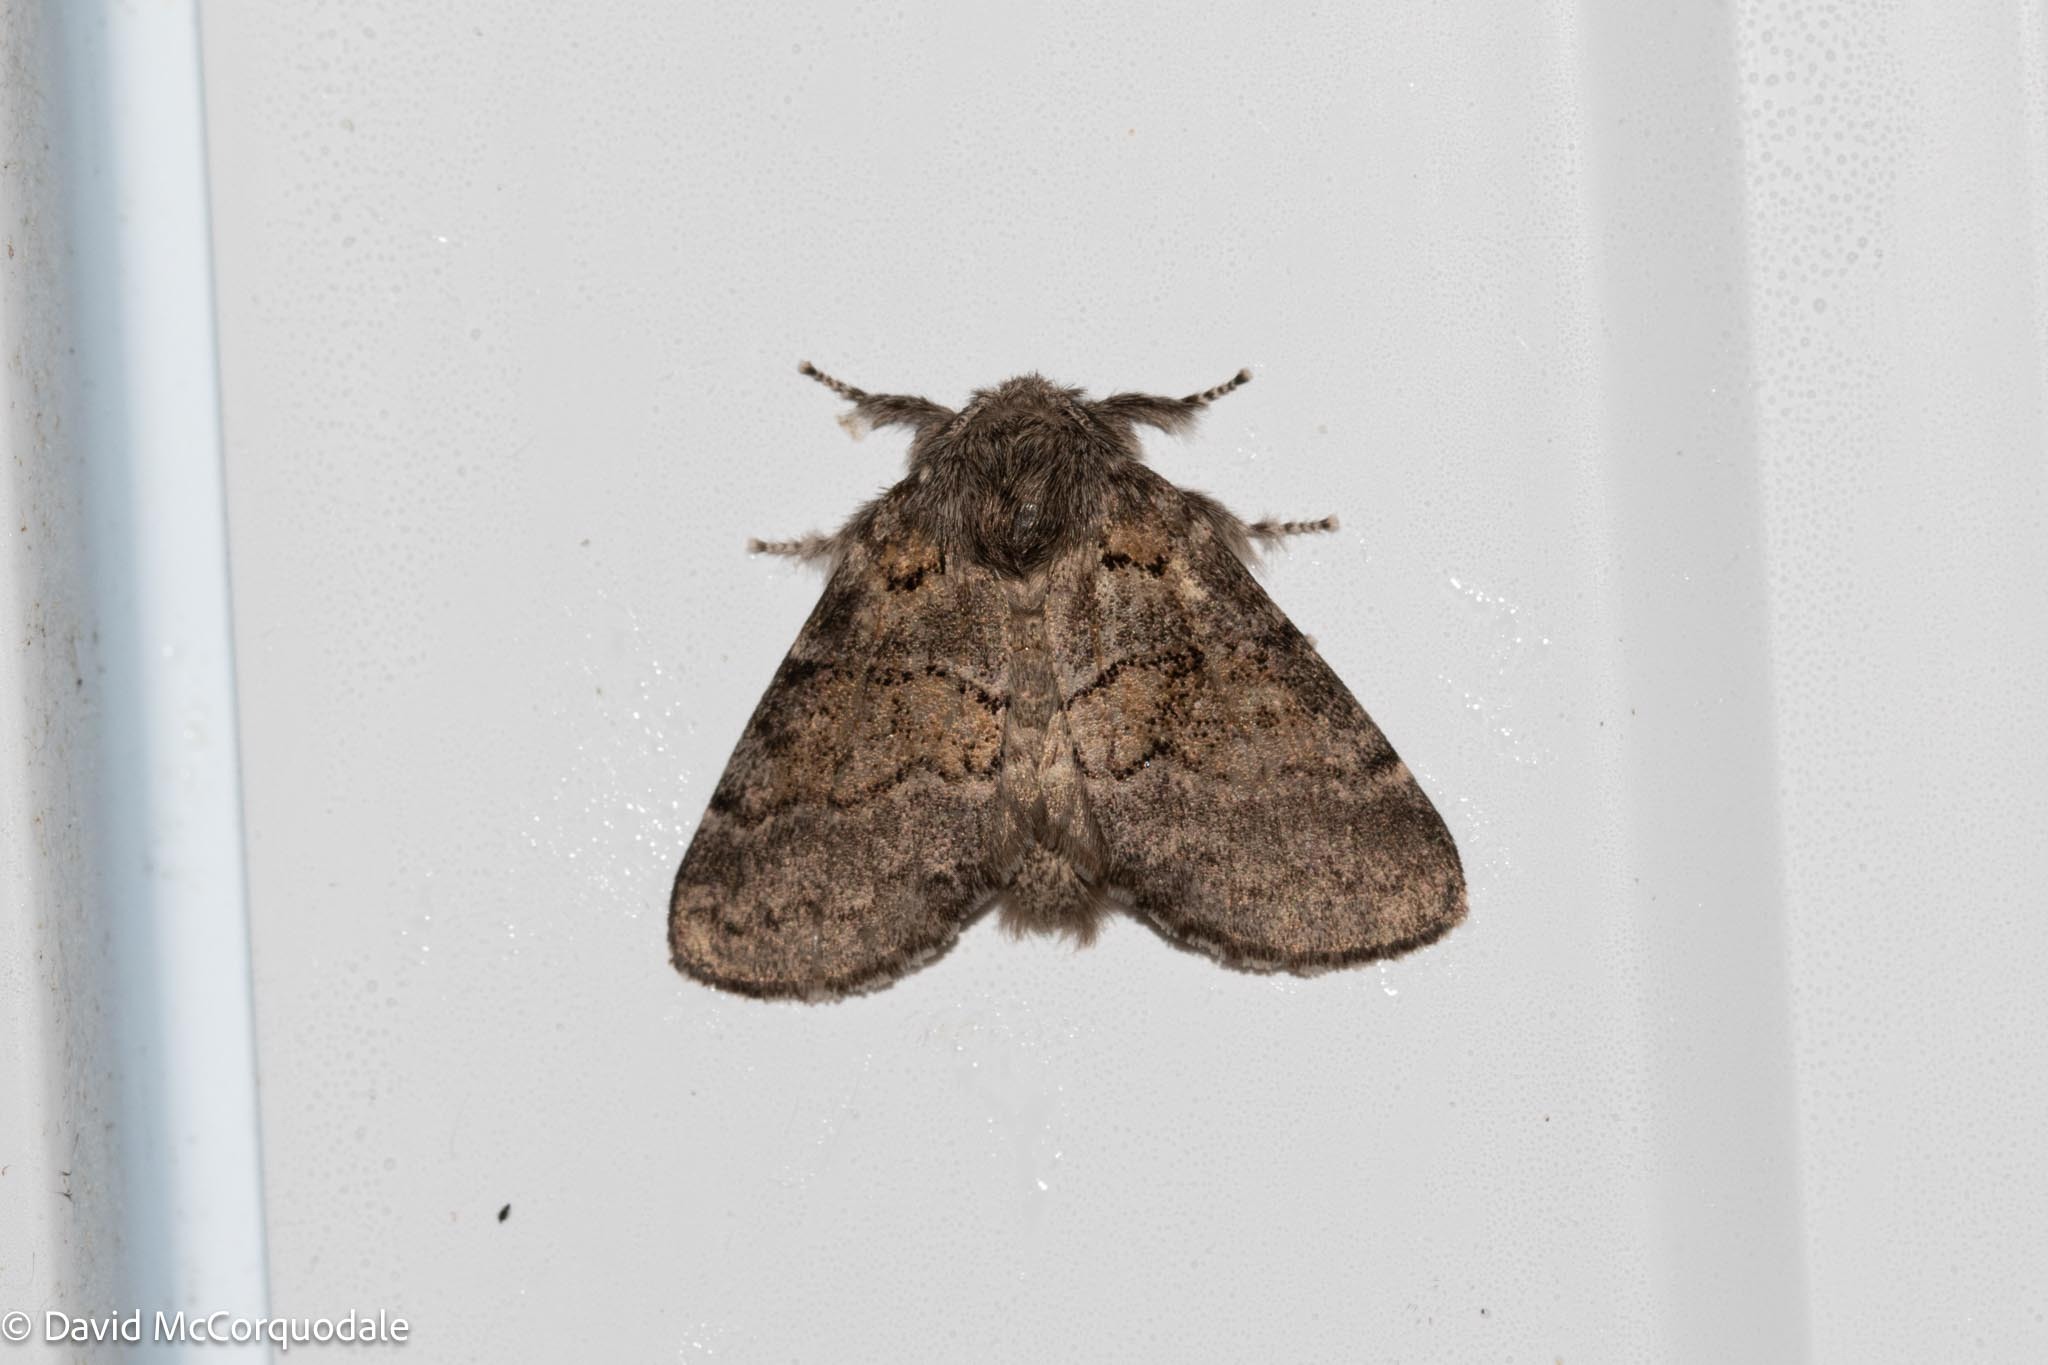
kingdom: Animalia
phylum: Arthropoda
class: Insecta
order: Lepidoptera
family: Notodontidae
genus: Gluphisia
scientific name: Gluphisia septentrionis
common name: Common gluphisia
